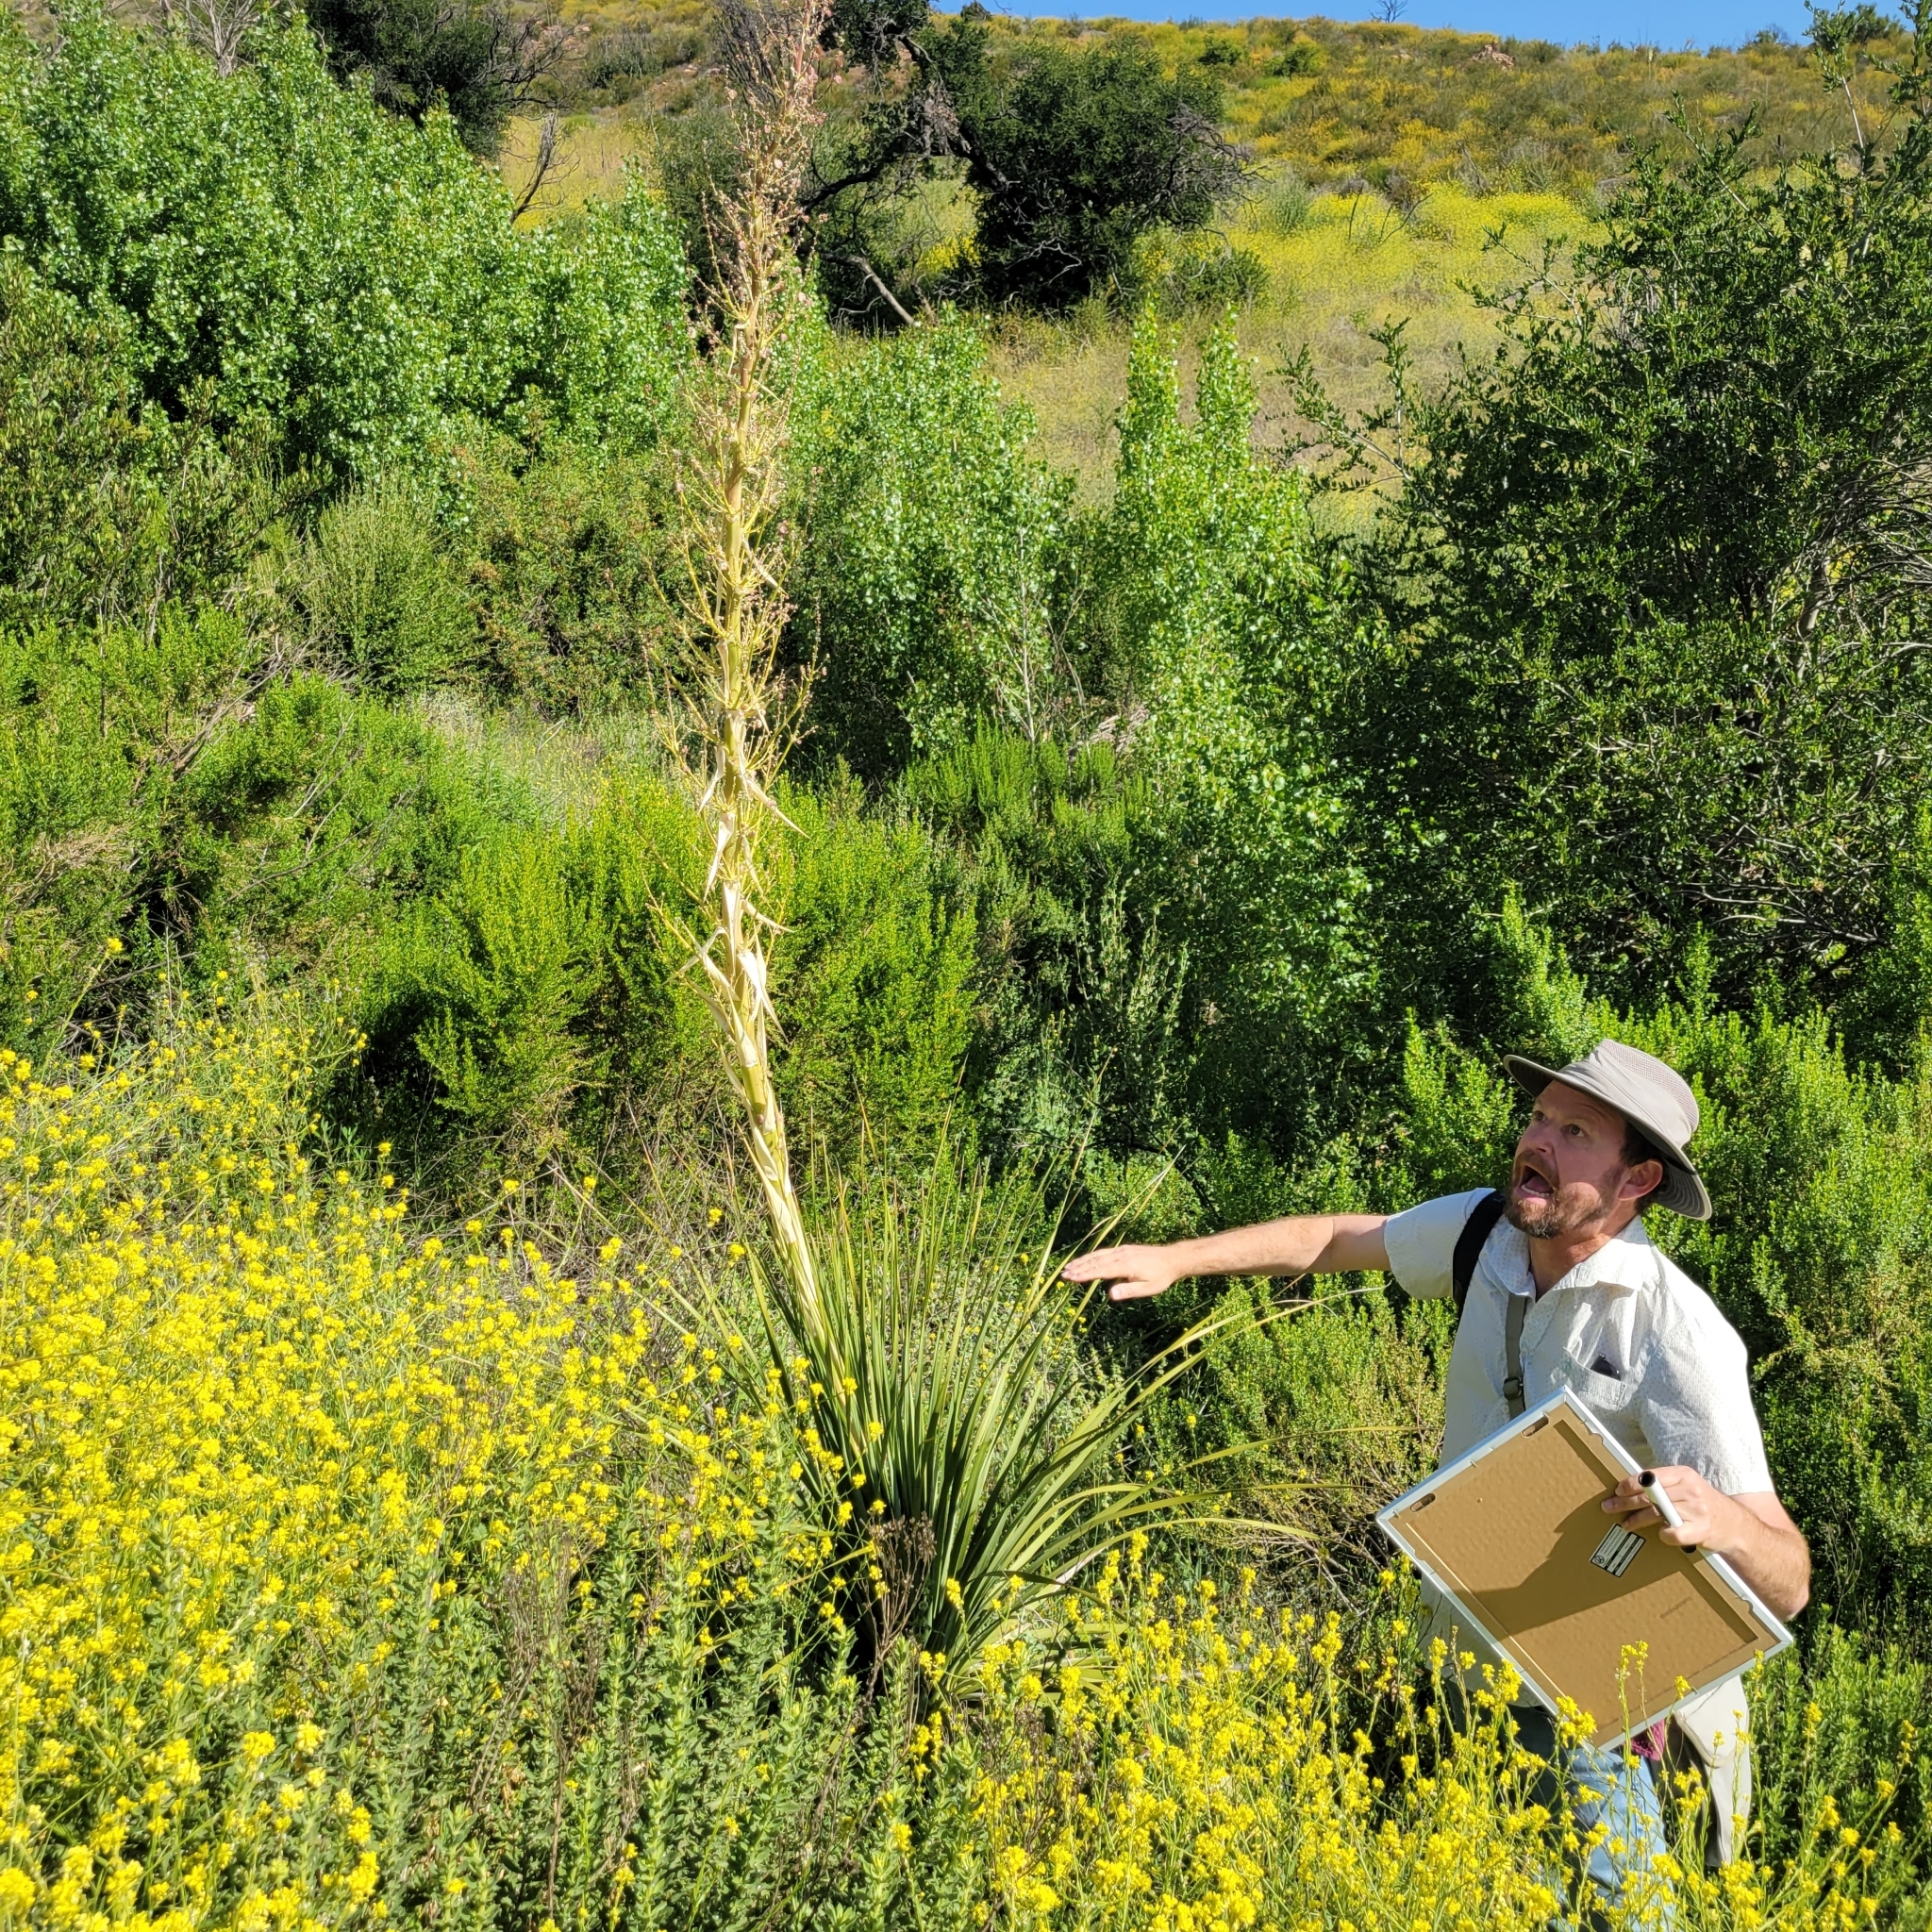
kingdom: Plantae
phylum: Tracheophyta
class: Liliopsida
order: Asparagales
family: Asparagaceae
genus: Nolina
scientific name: Nolina cismontana
